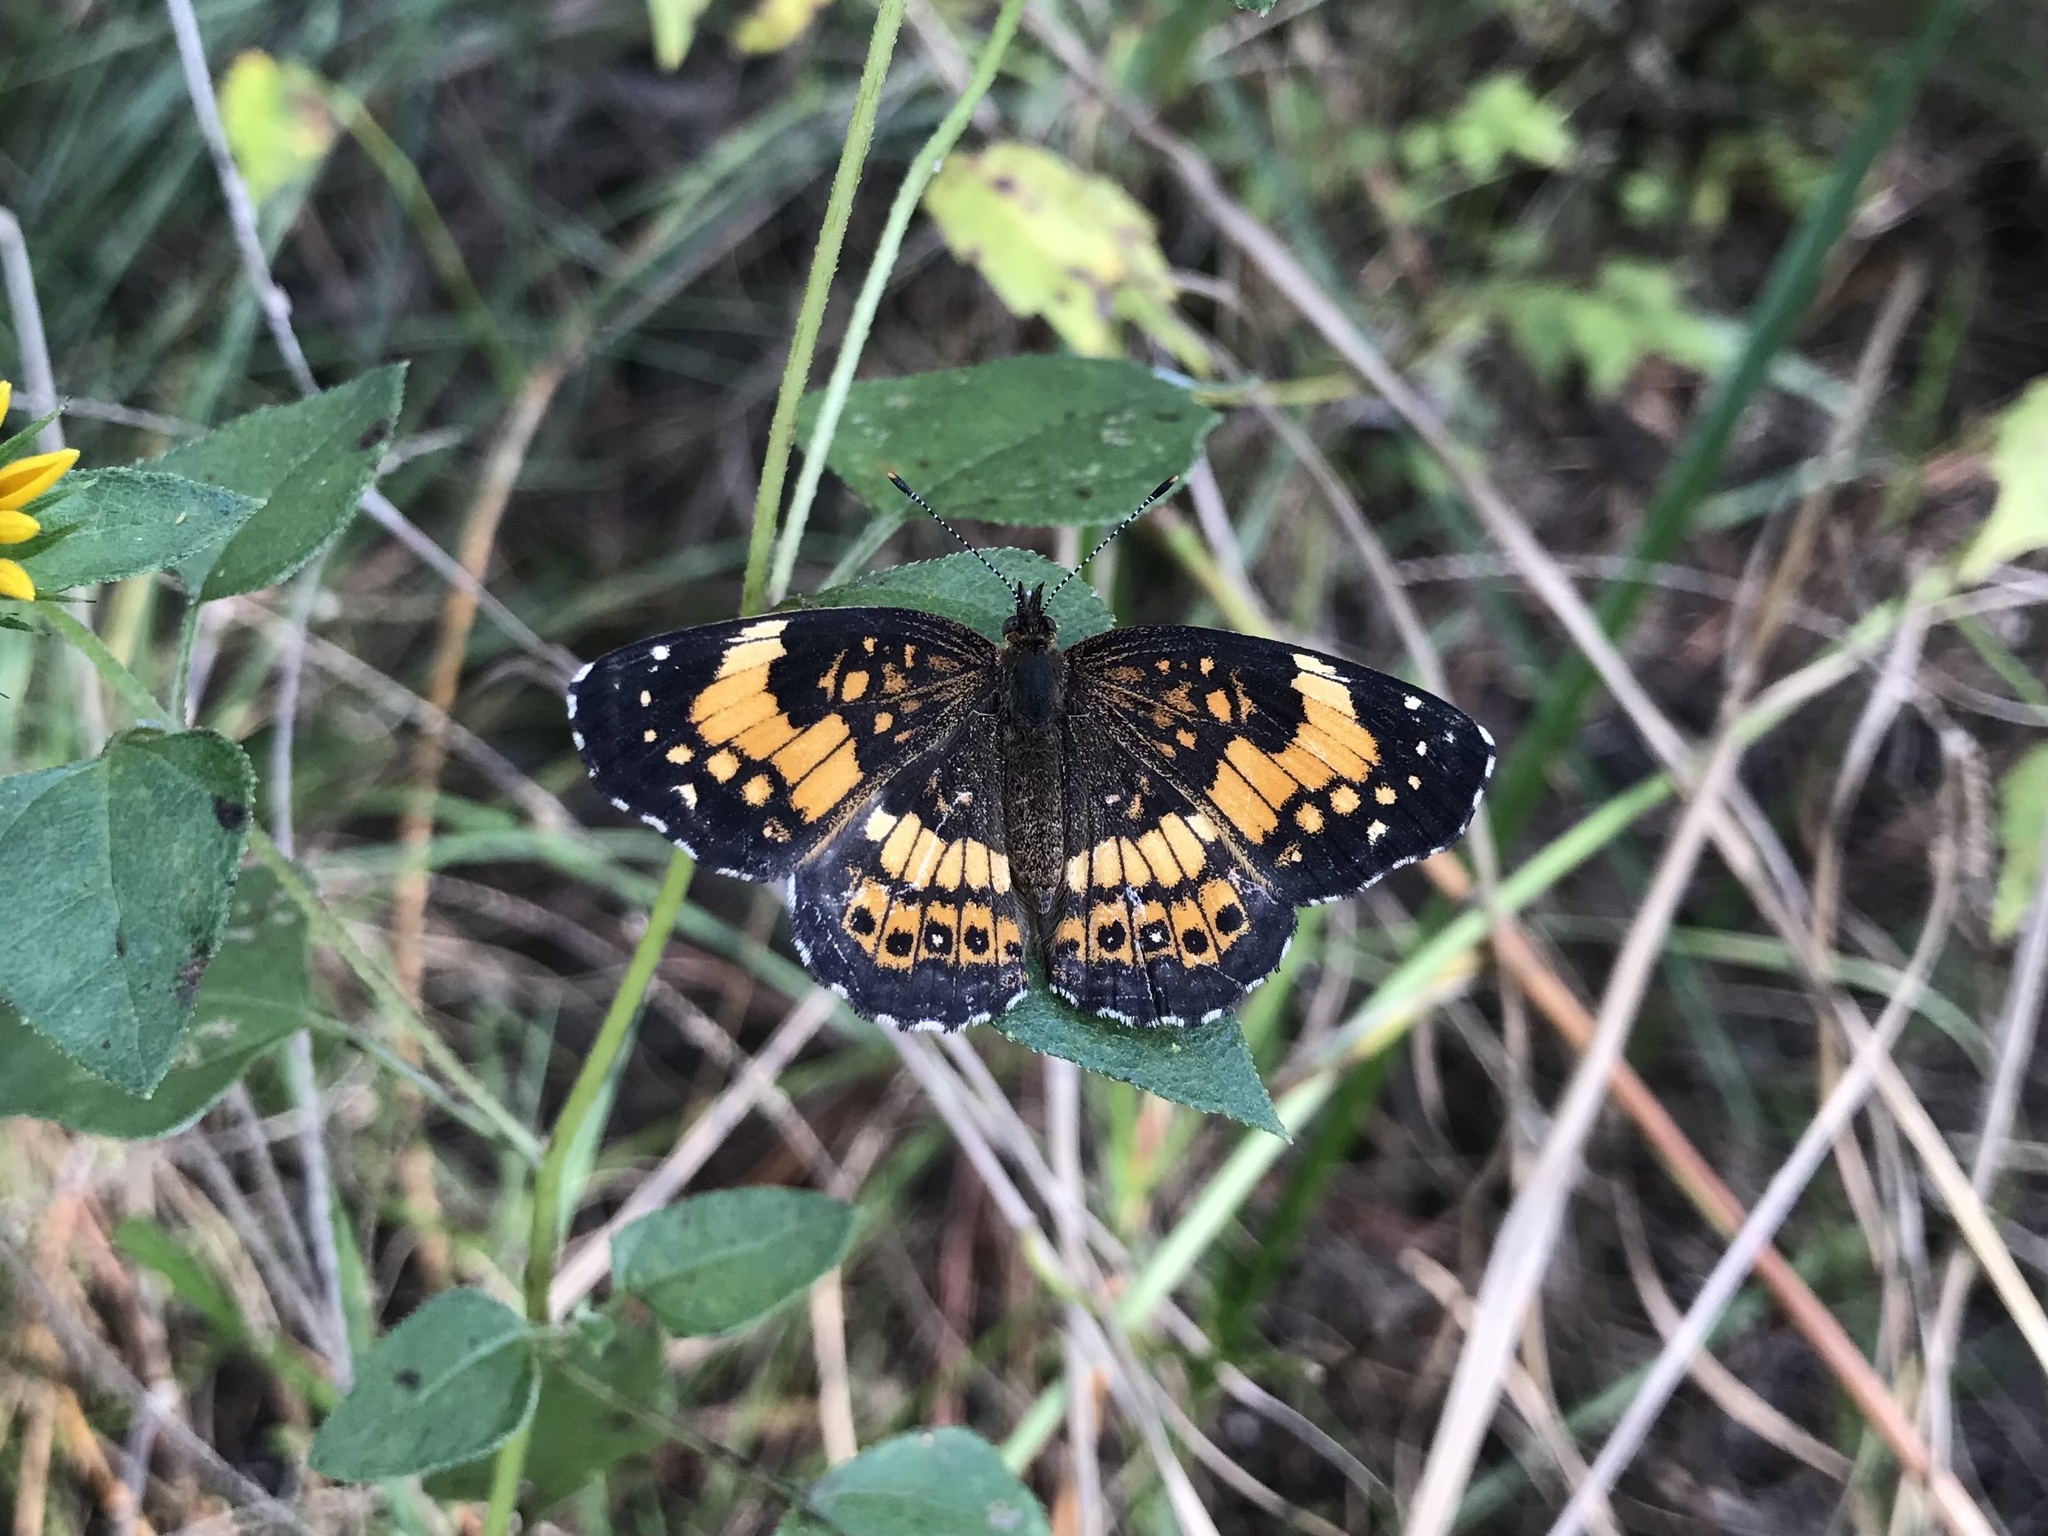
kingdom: Animalia
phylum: Arthropoda
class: Insecta
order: Lepidoptera
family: Nymphalidae
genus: Chlosyne
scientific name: Chlosyne nycteis
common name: Silvery checkerspot
